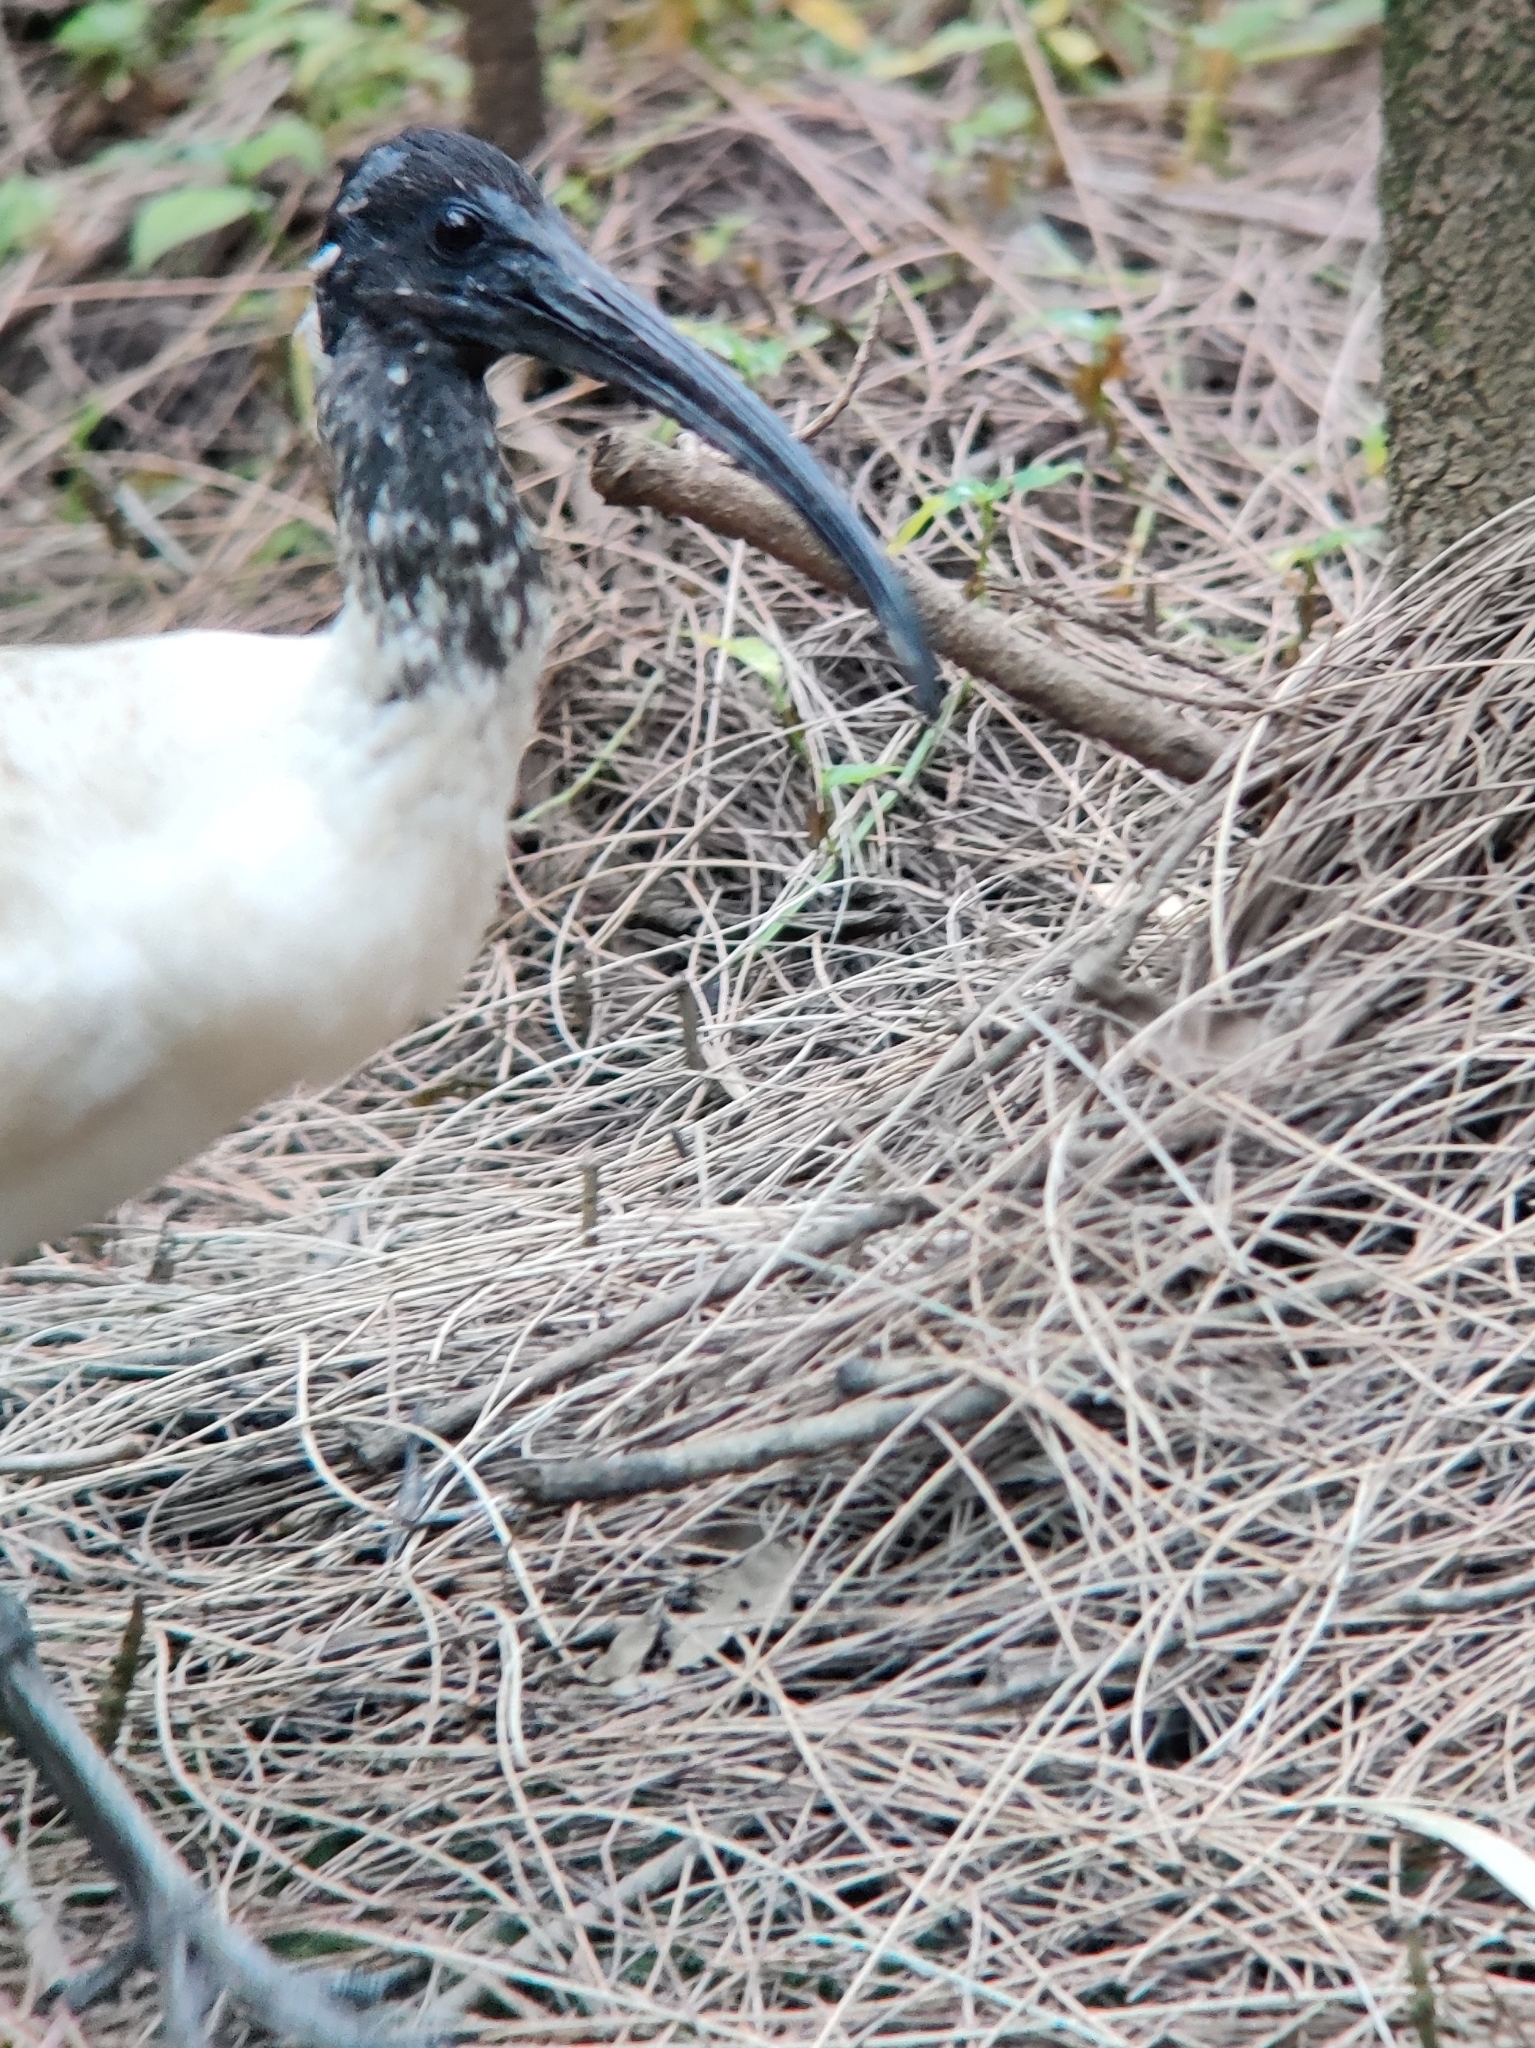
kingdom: Animalia
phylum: Chordata
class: Aves
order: Pelecaniformes
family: Threskiornithidae
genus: Threskiornis
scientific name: Threskiornis molucca
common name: Australian white ibis
